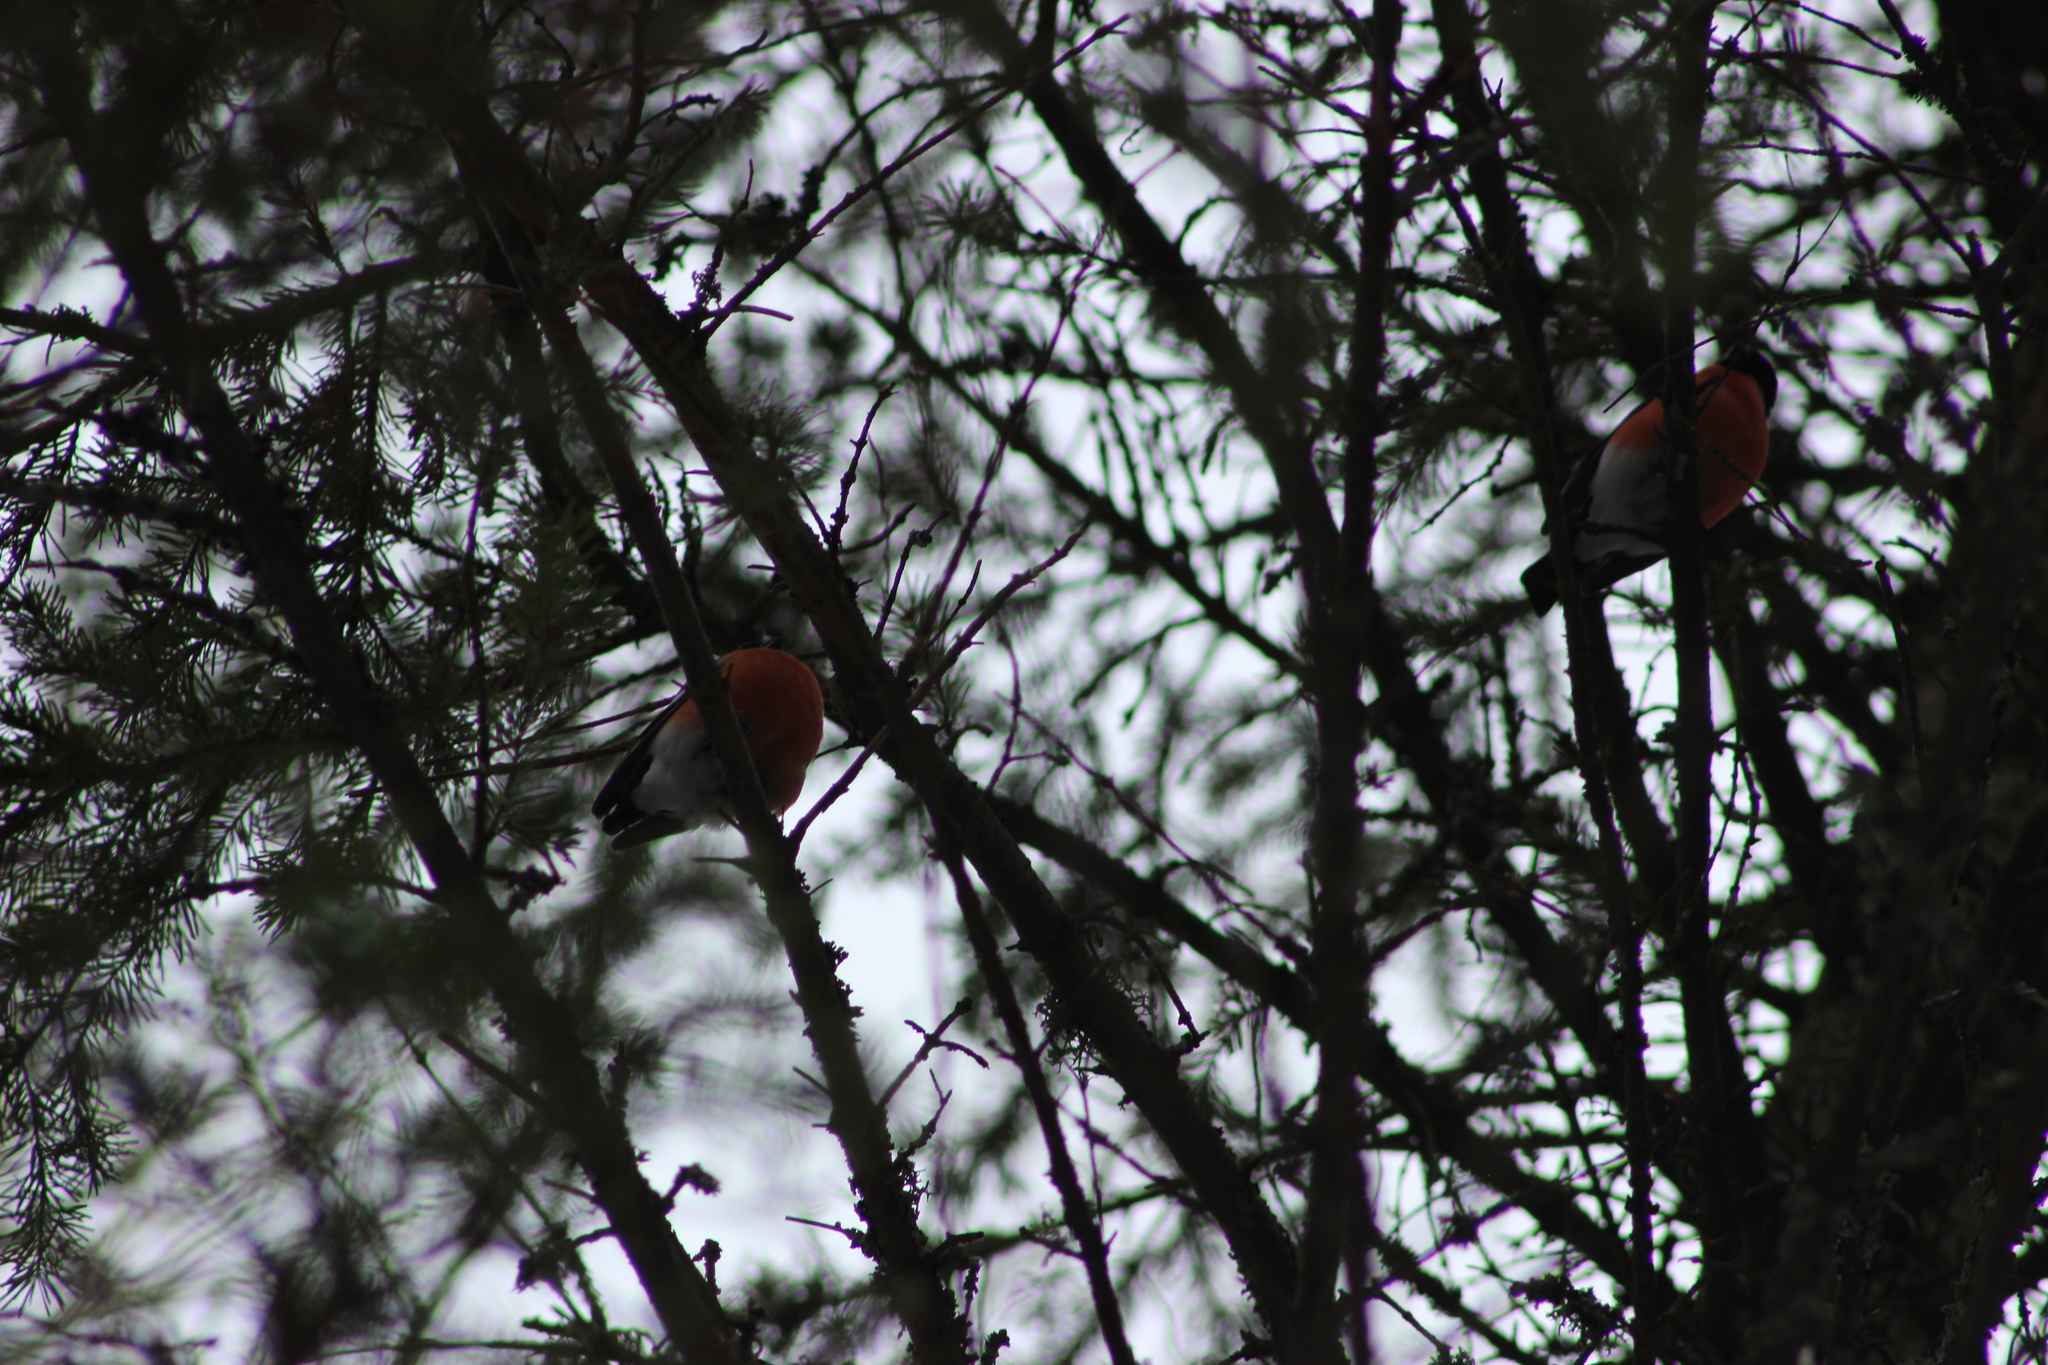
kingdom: Animalia
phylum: Chordata
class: Aves
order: Passeriformes
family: Fringillidae
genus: Pyrrhula
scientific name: Pyrrhula pyrrhula
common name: Eurasian bullfinch
